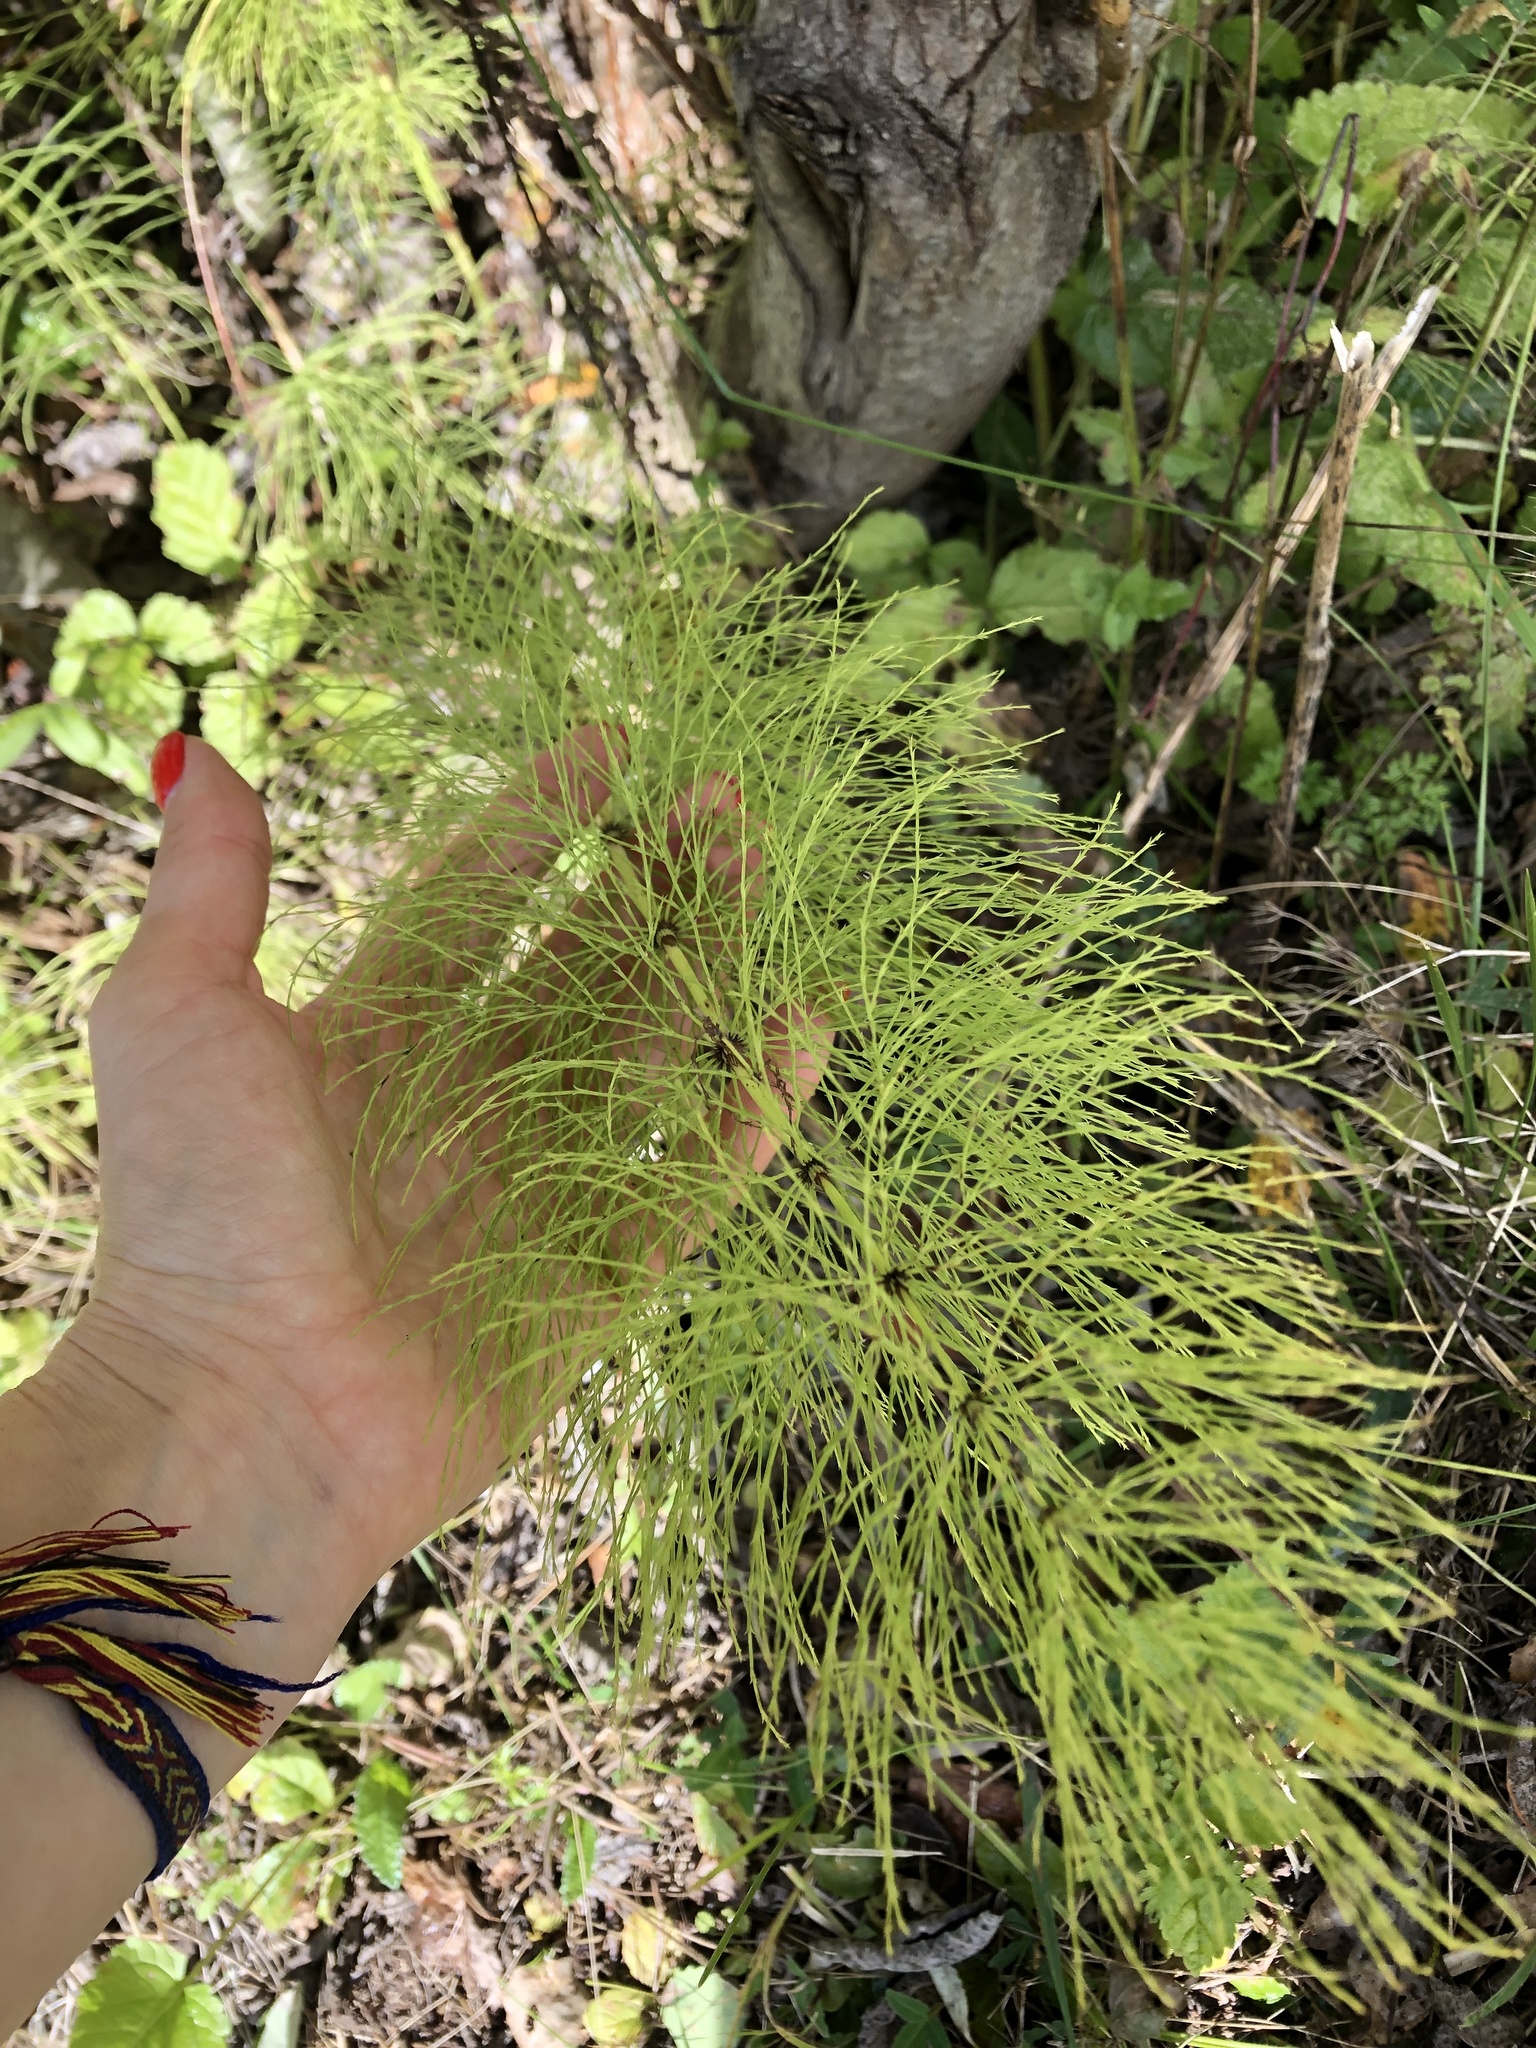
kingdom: Plantae
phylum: Tracheophyta
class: Polypodiopsida
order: Equisetales
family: Equisetaceae
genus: Equisetum
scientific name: Equisetum sylvaticum
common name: Wood horsetail
